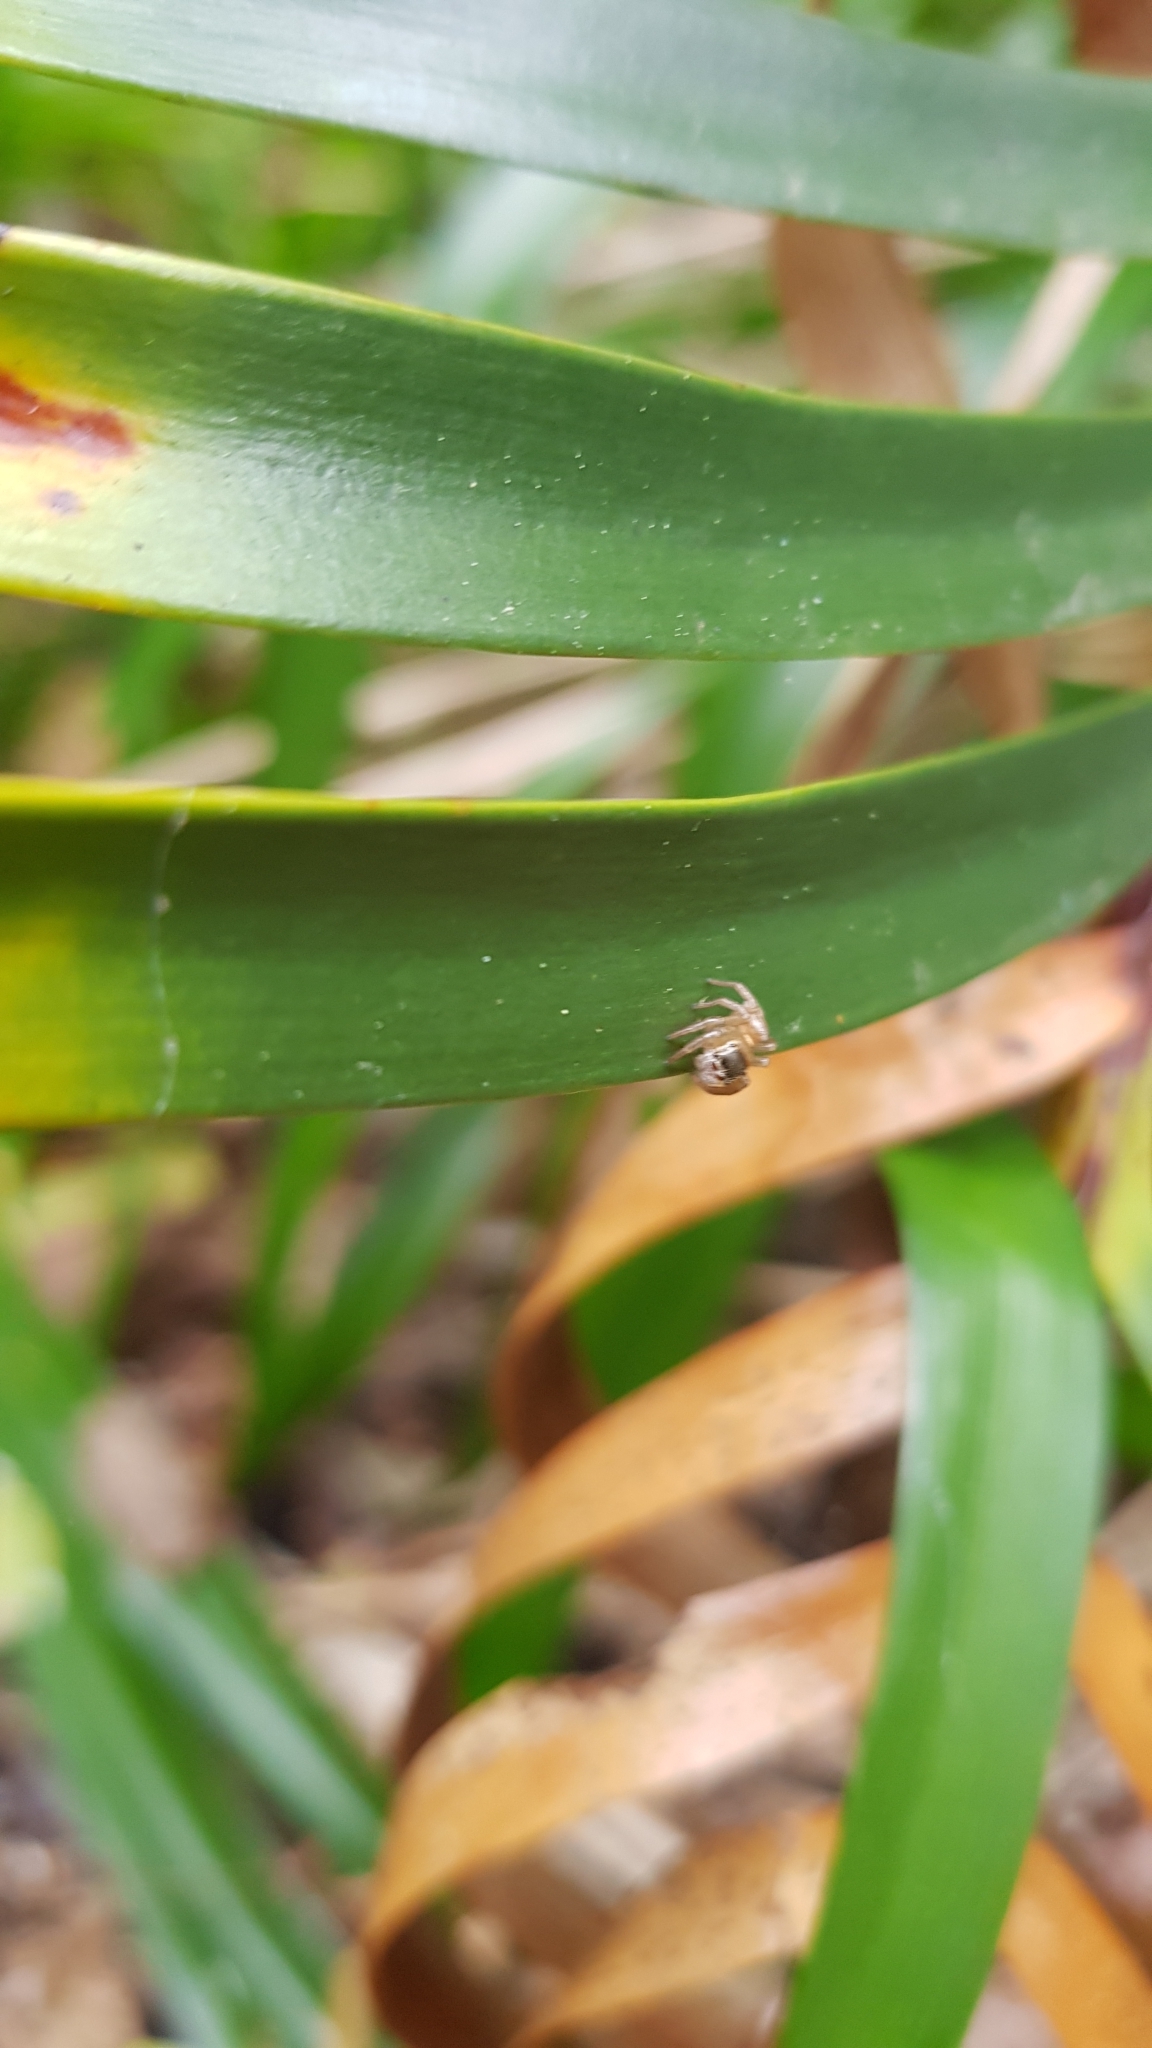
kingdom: Animalia
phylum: Arthropoda
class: Arachnida
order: Araneae
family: Salticidae
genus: Maratus
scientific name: Maratus scutulatus
